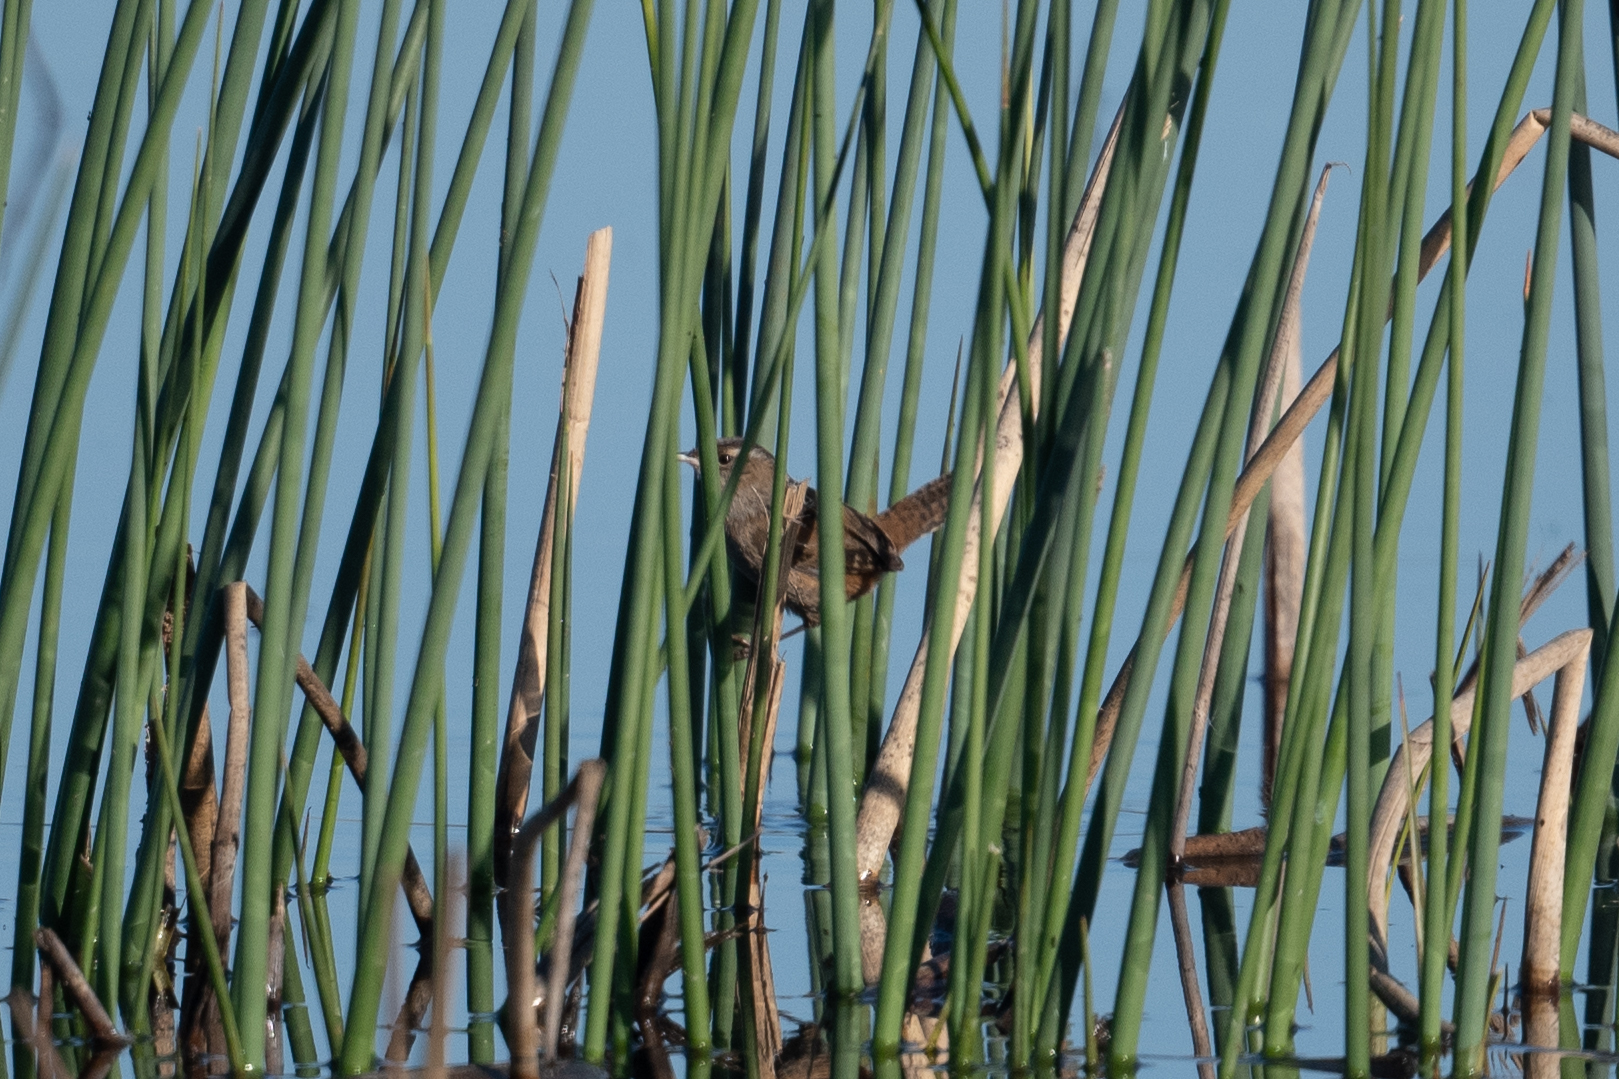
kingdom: Animalia
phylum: Chordata
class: Aves
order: Passeriformes
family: Troglodytidae
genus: Cistothorus
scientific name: Cistothorus palustris
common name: Marsh wren
